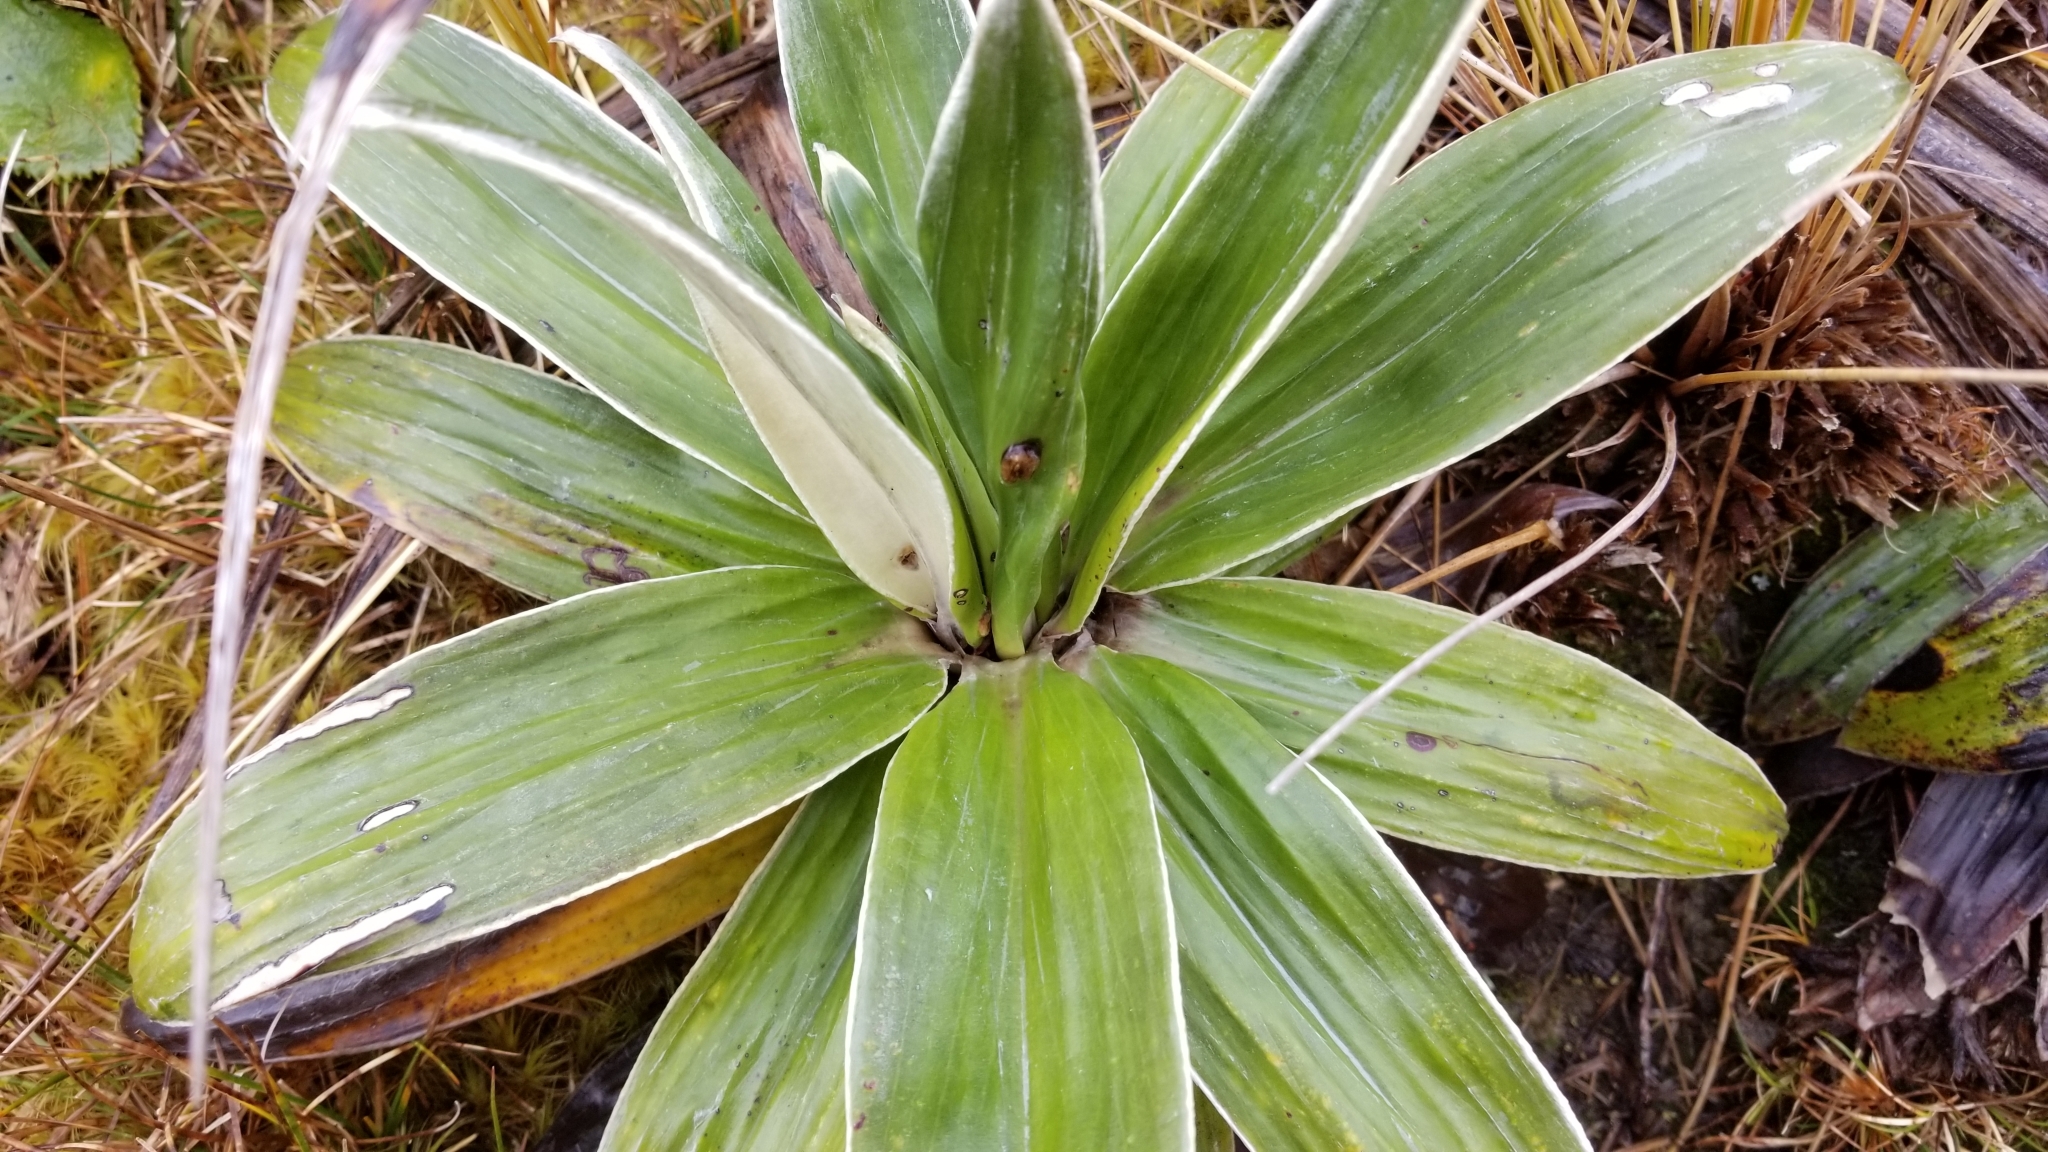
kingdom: Plantae
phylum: Tracheophyta
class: Magnoliopsida
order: Asterales
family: Asteraceae
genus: Celmisia
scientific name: Celmisia semicordata
